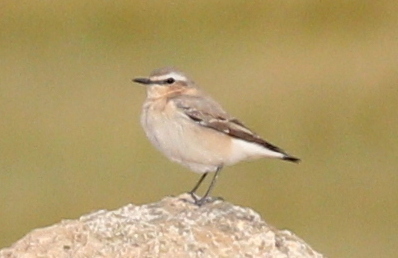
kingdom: Animalia
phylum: Chordata
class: Aves
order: Passeriformes
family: Muscicapidae
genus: Oenanthe
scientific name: Oenanthe oenanthe
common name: Northern wheatear
